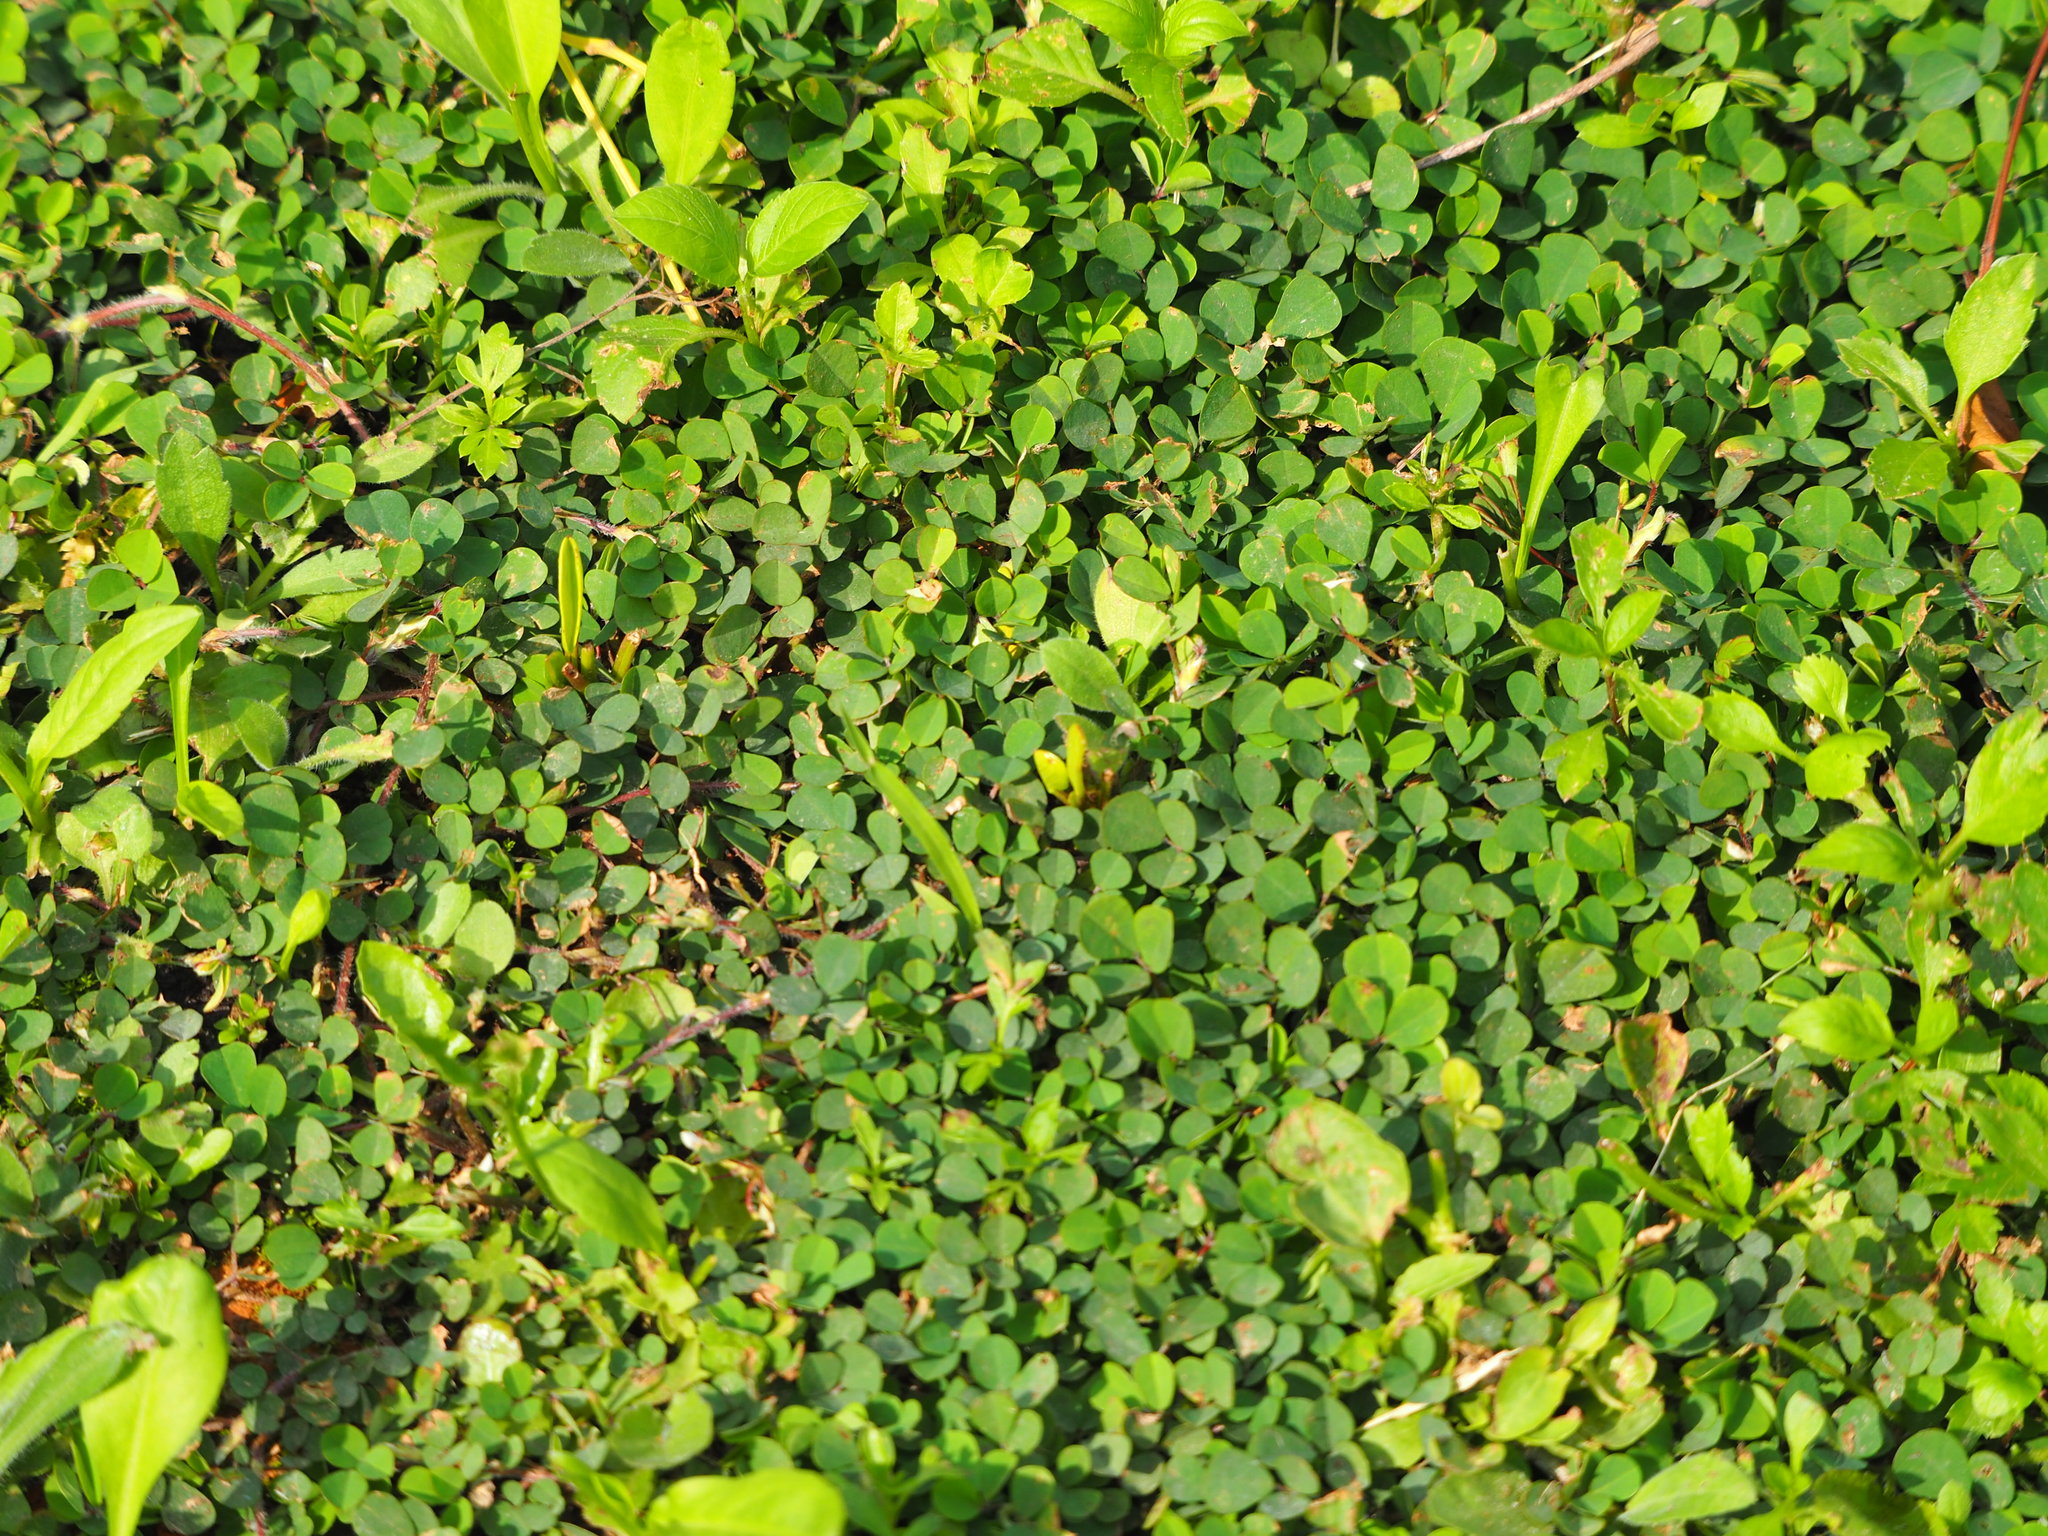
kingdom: Plantae
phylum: Tracheophyta
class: Magnoliopsida
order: Fabales
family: Fabaceae
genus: Grona
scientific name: Grona triflora
